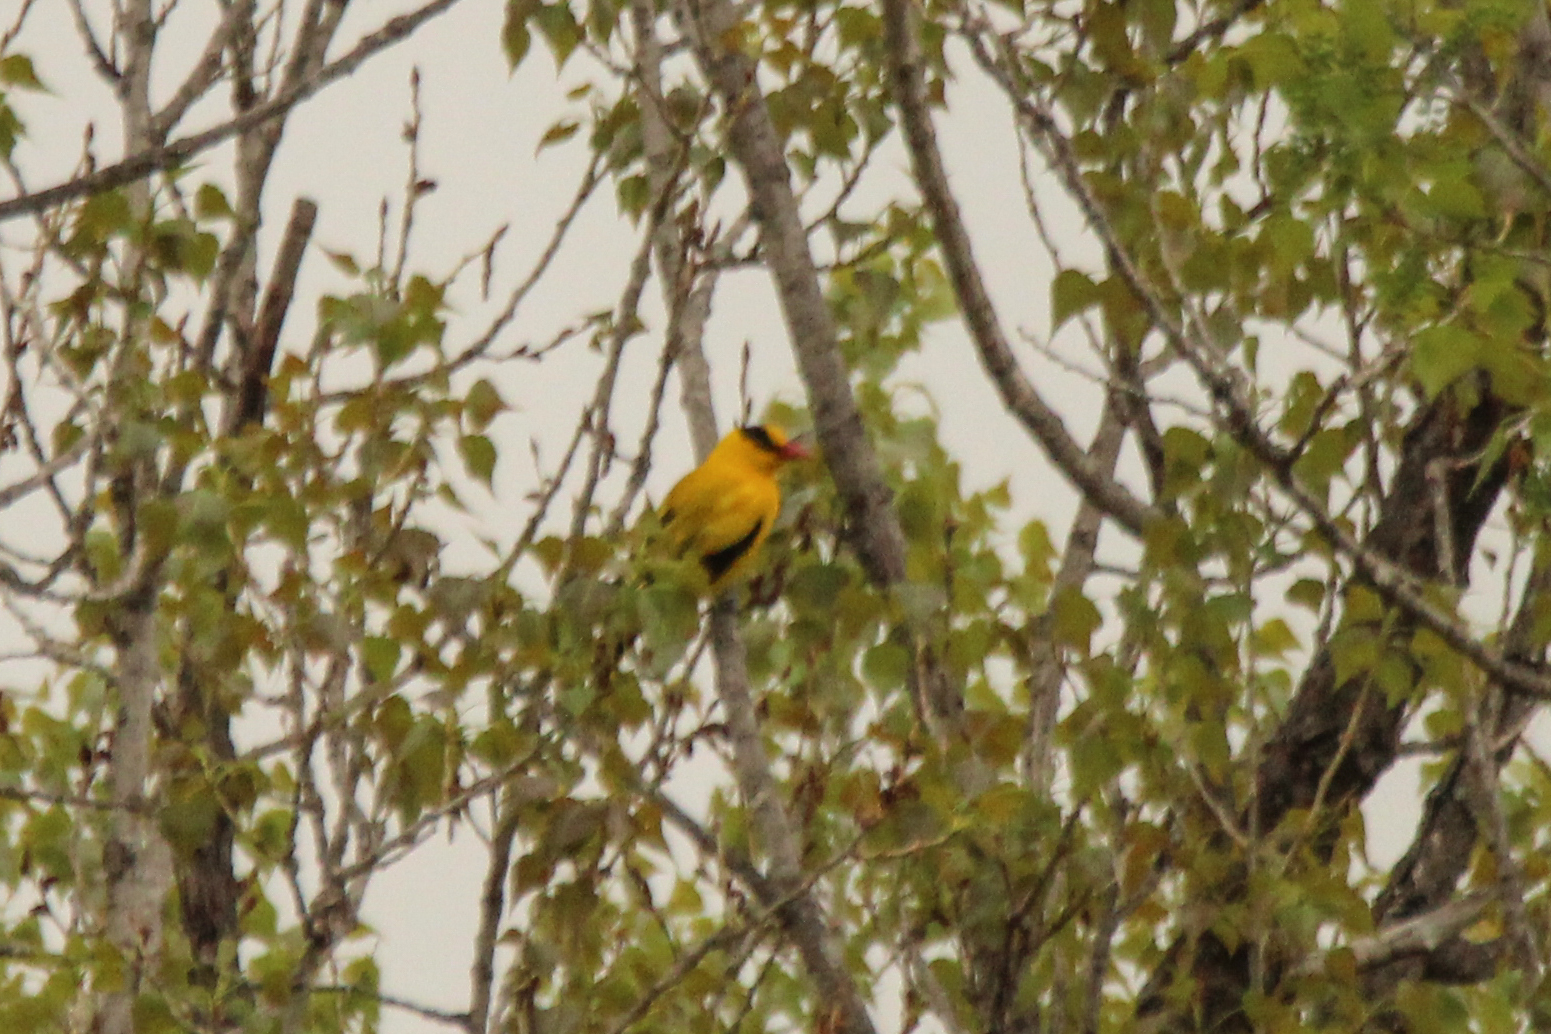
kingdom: Animalia
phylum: Chordata
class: Aves
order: Passeriformes
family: Oriolidae
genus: Oriolus
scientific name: Oriolus chinensis
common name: Black-naped oriole
